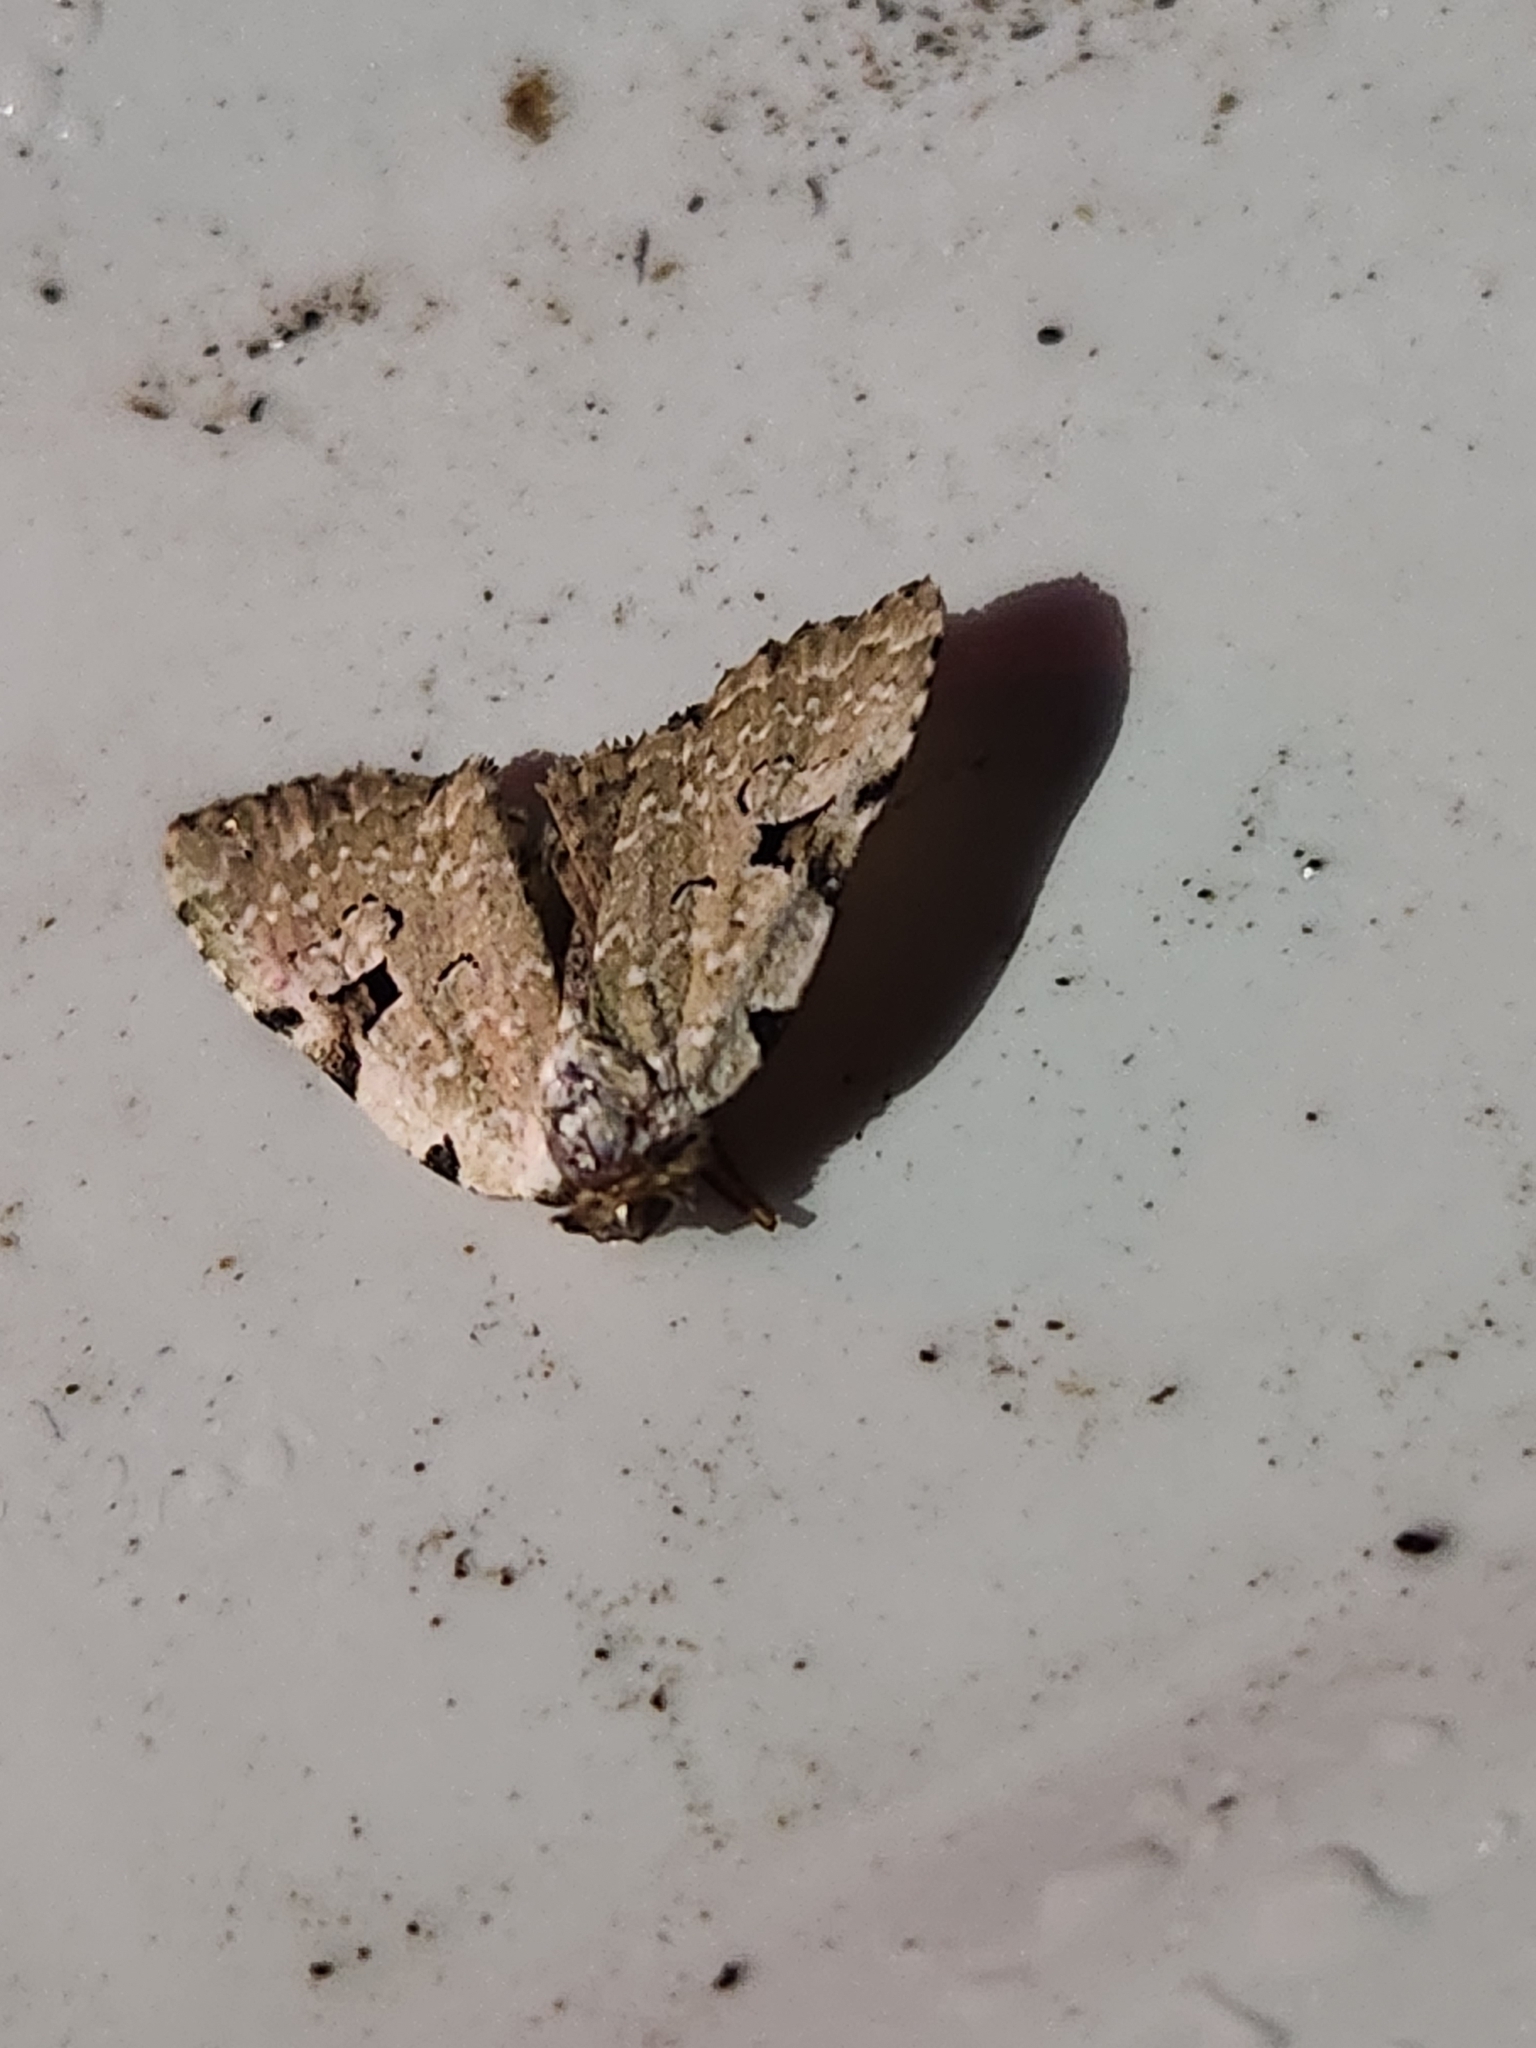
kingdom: Animalia
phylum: Arthropoda
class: Insecta
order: Lepidoptera
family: Noctuidae
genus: Leuconycta
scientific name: Leuconycta diphteroides
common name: Green leuconycta moth
